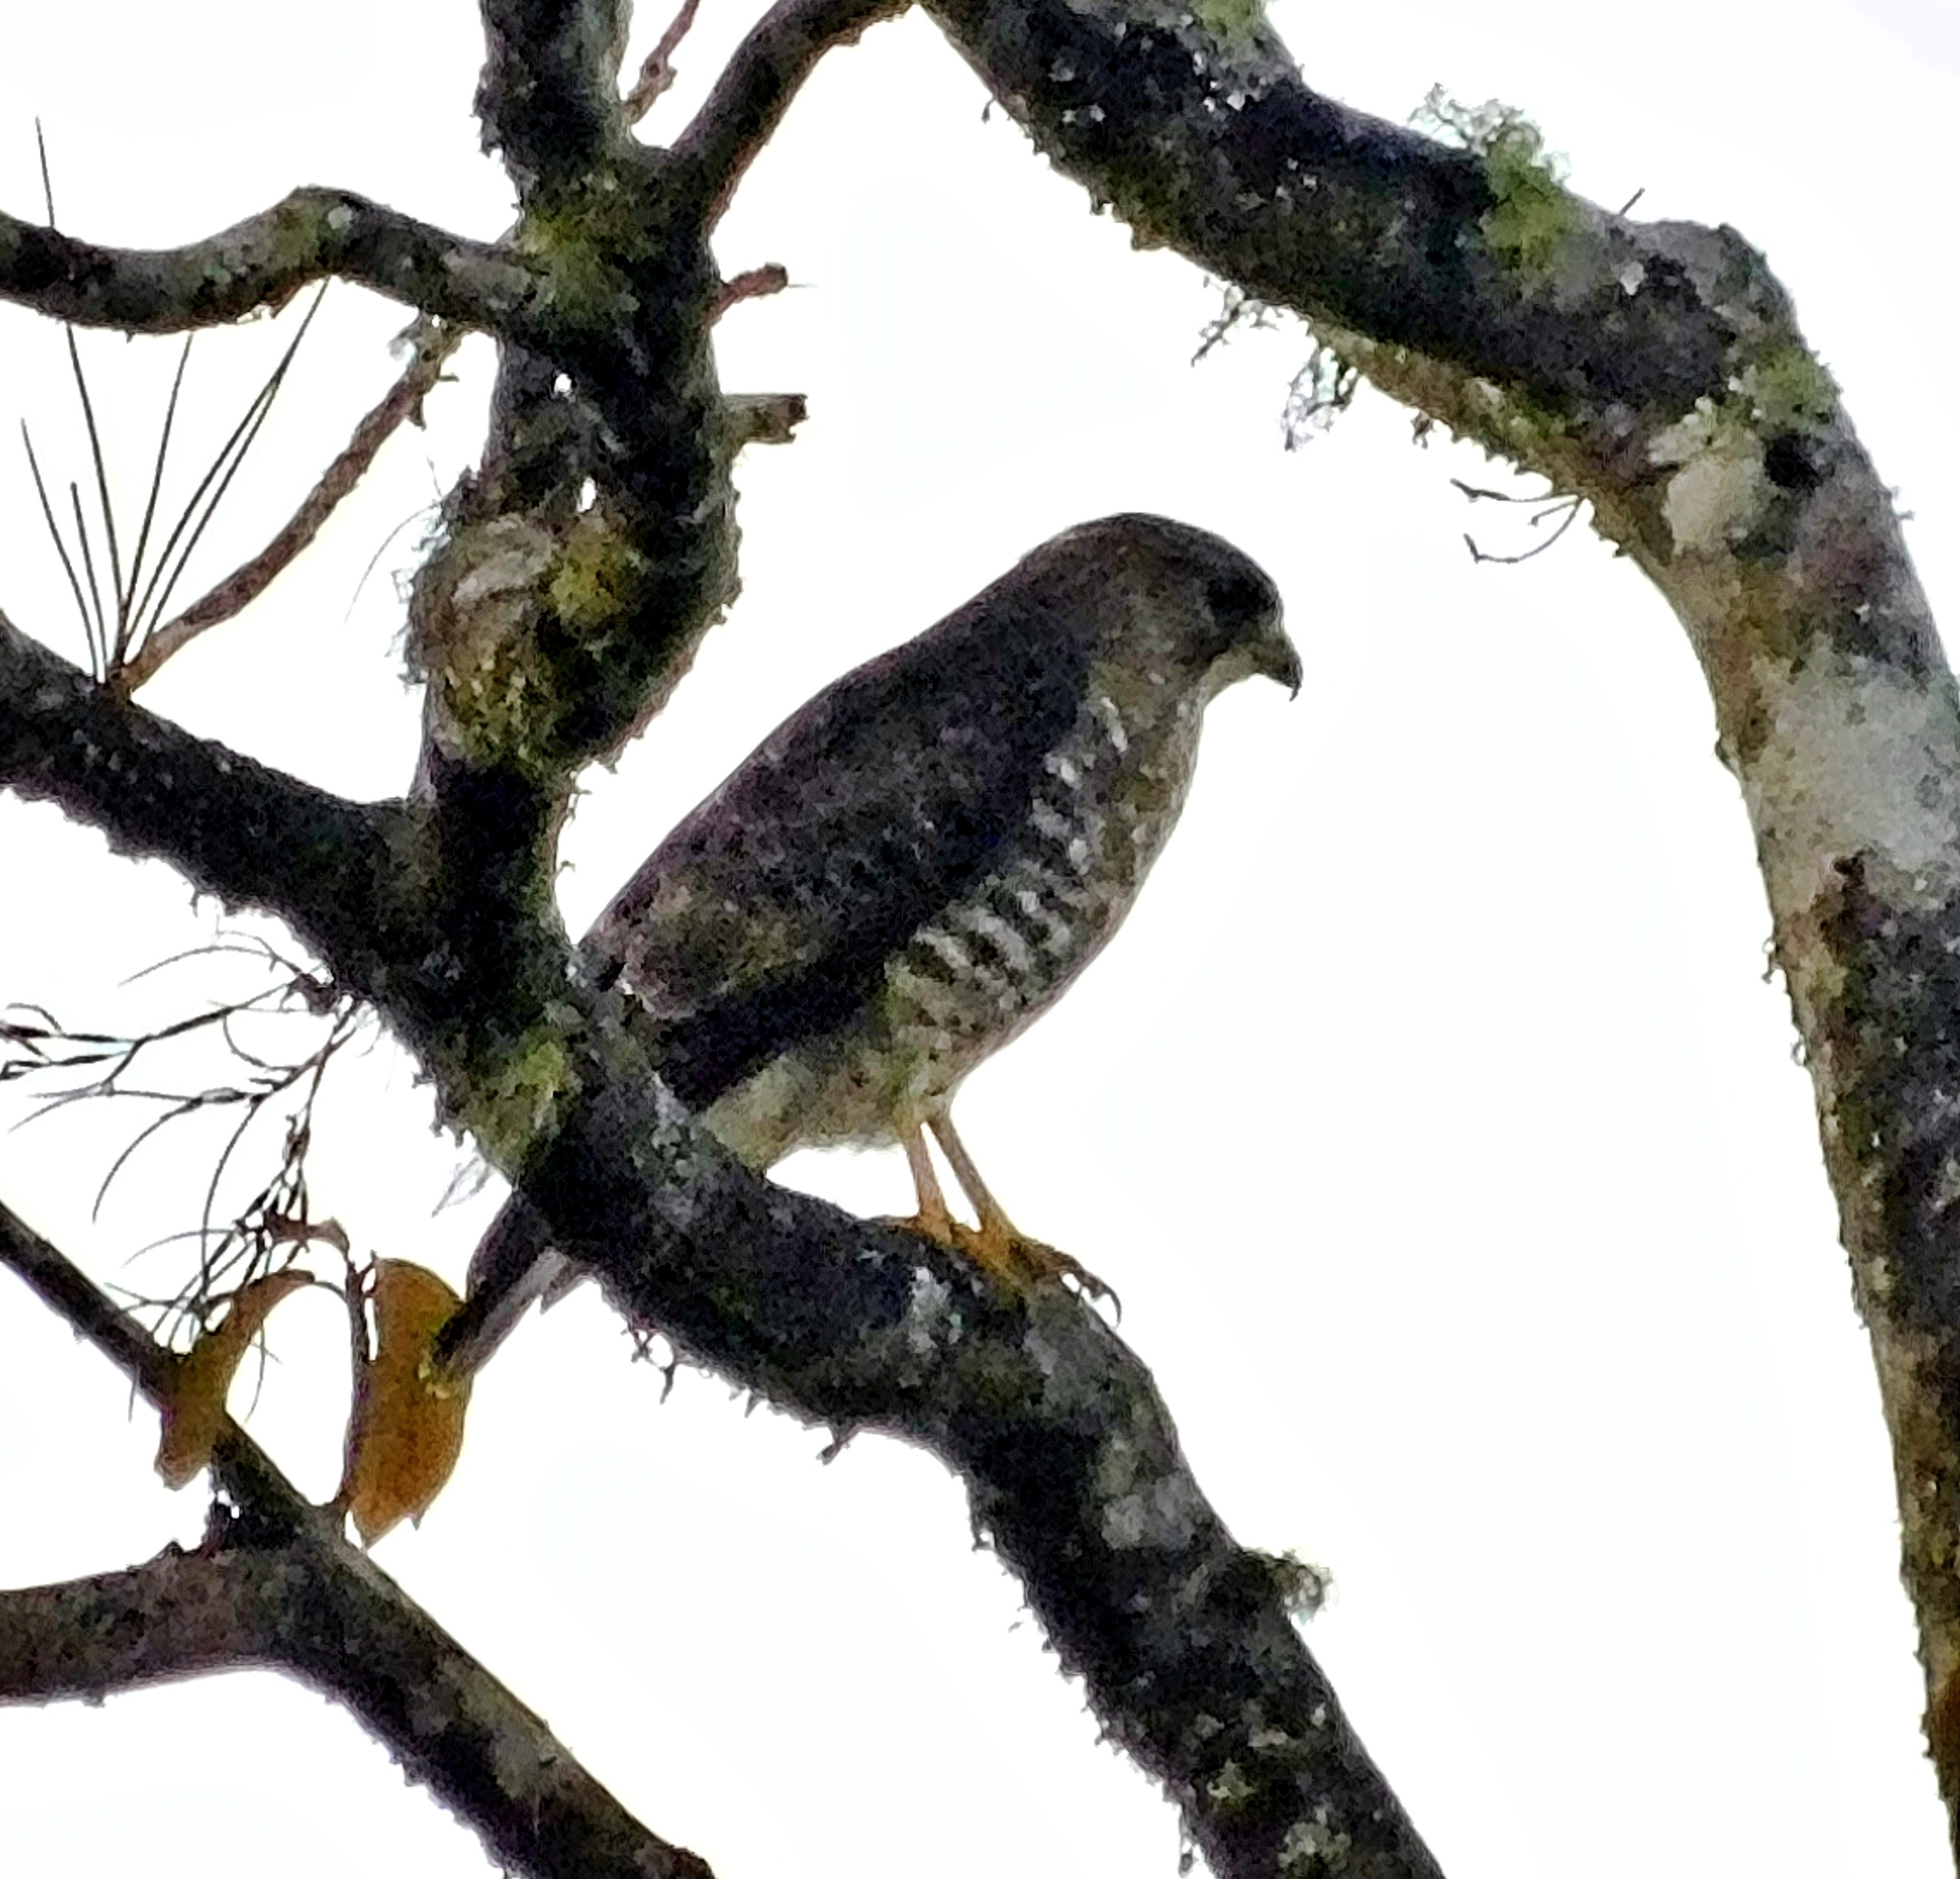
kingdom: Animalia
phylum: Chordata
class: Aves
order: Accipitriformes
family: Accipitridae
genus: Buteo
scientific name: Buteo platypterus
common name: Broad-winged hawk
